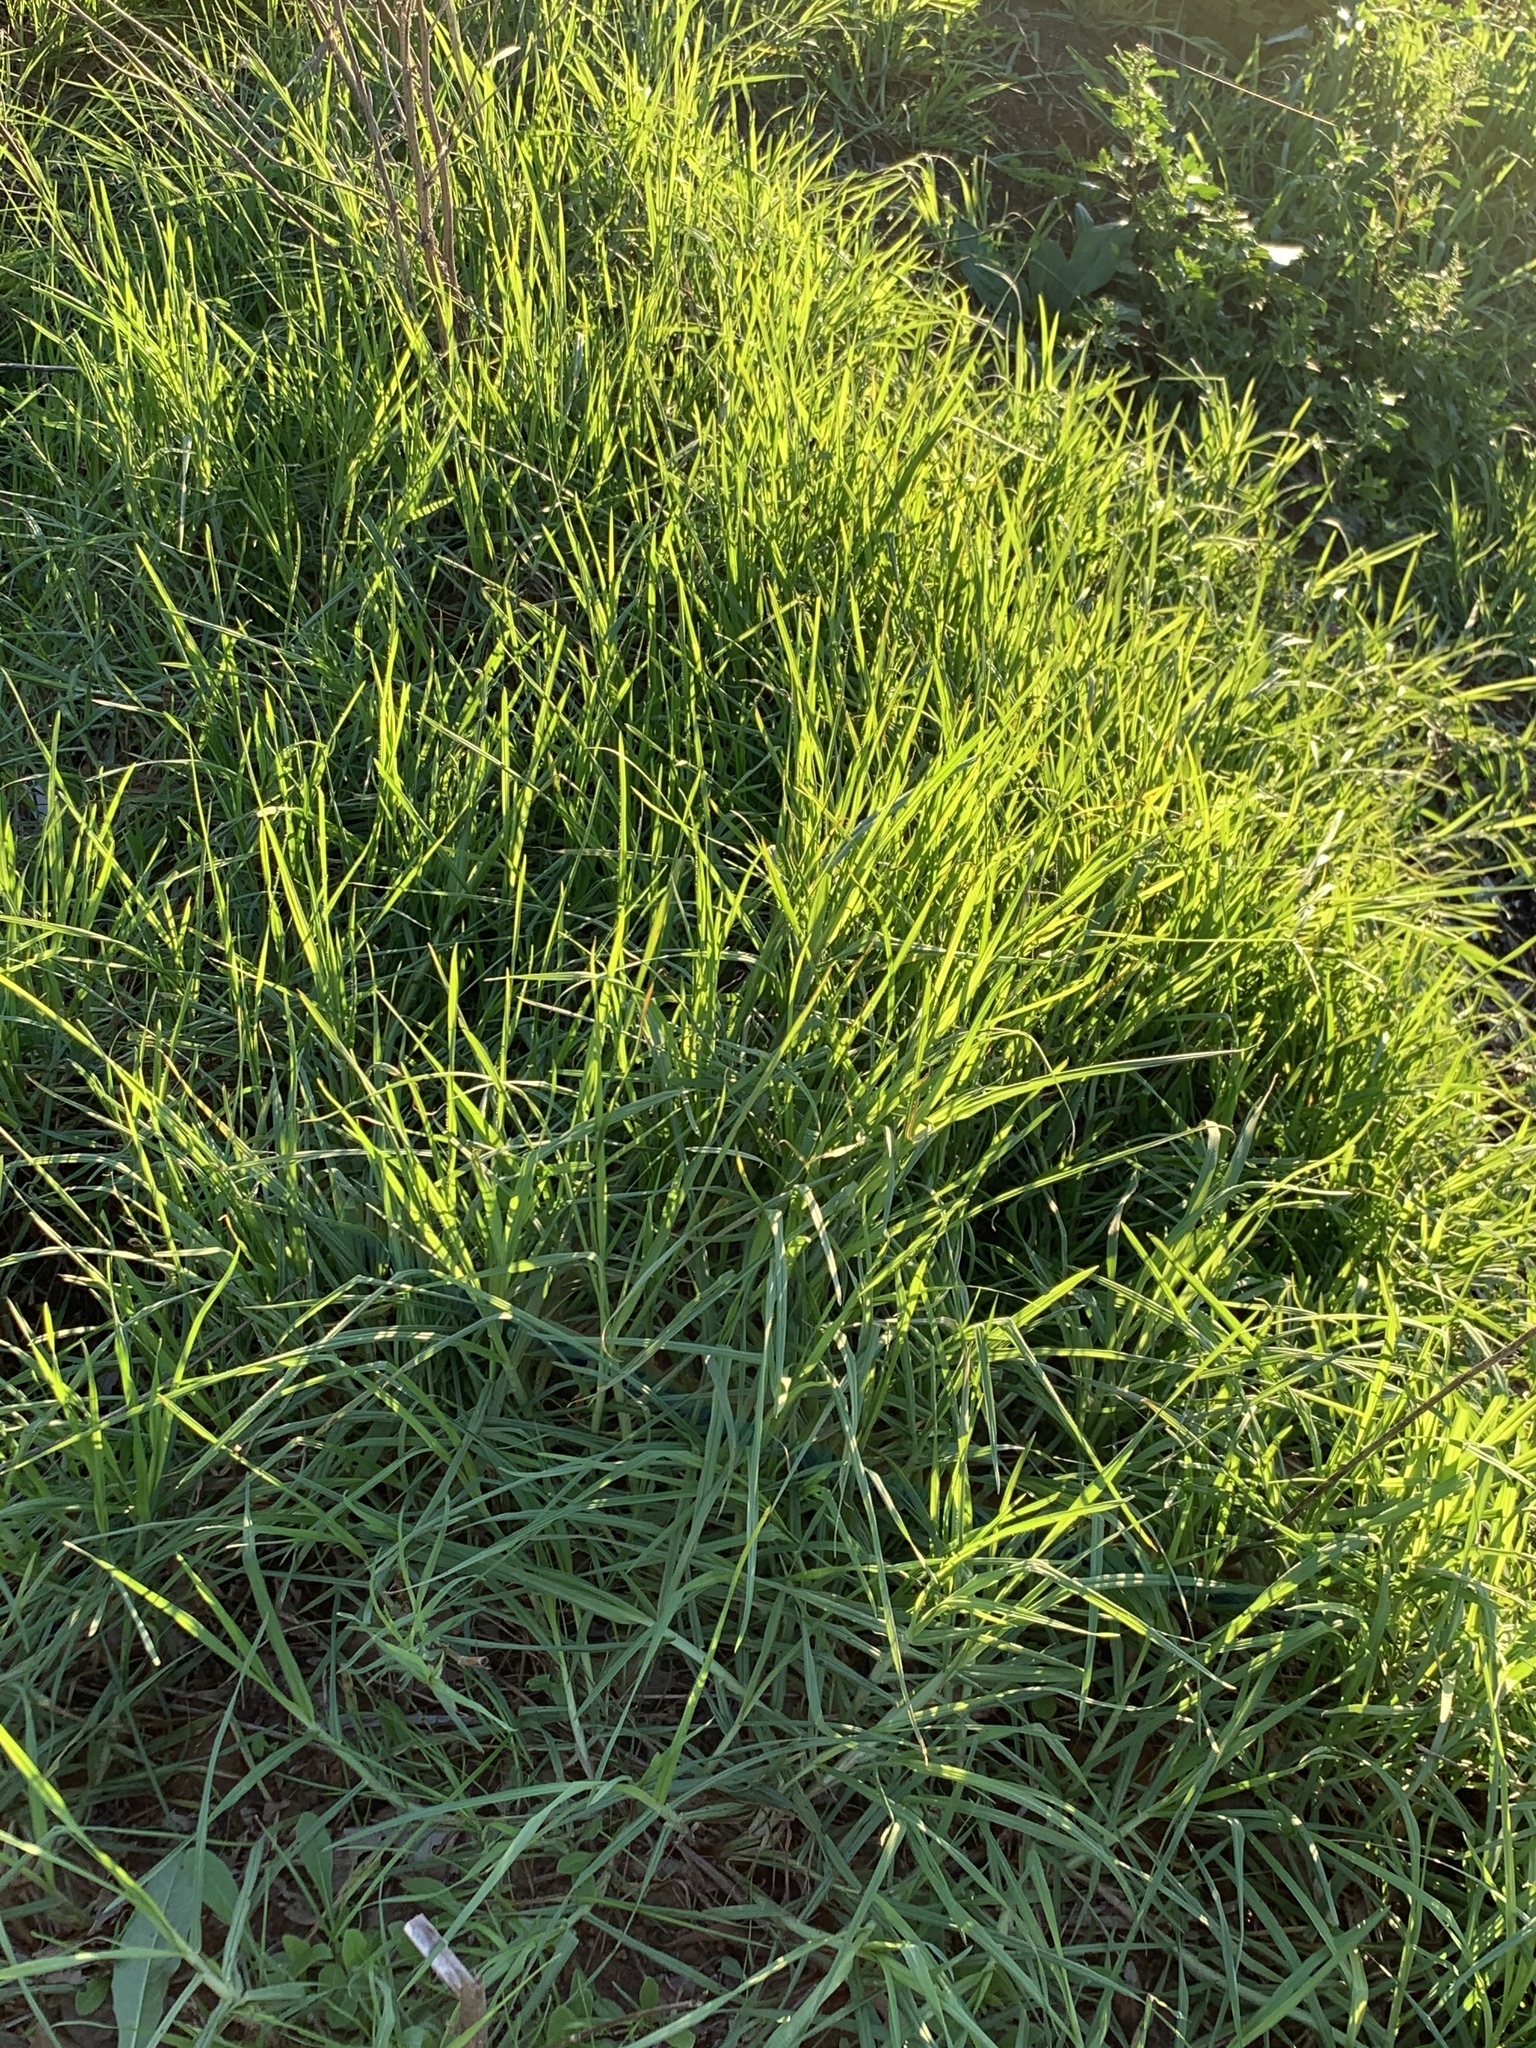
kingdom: Plantae
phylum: Tracheophyta
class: Liliopsida
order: Poales
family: Poaceae
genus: Cenchrus
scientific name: Cenchrus clandestinus
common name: Kikuyugrass
